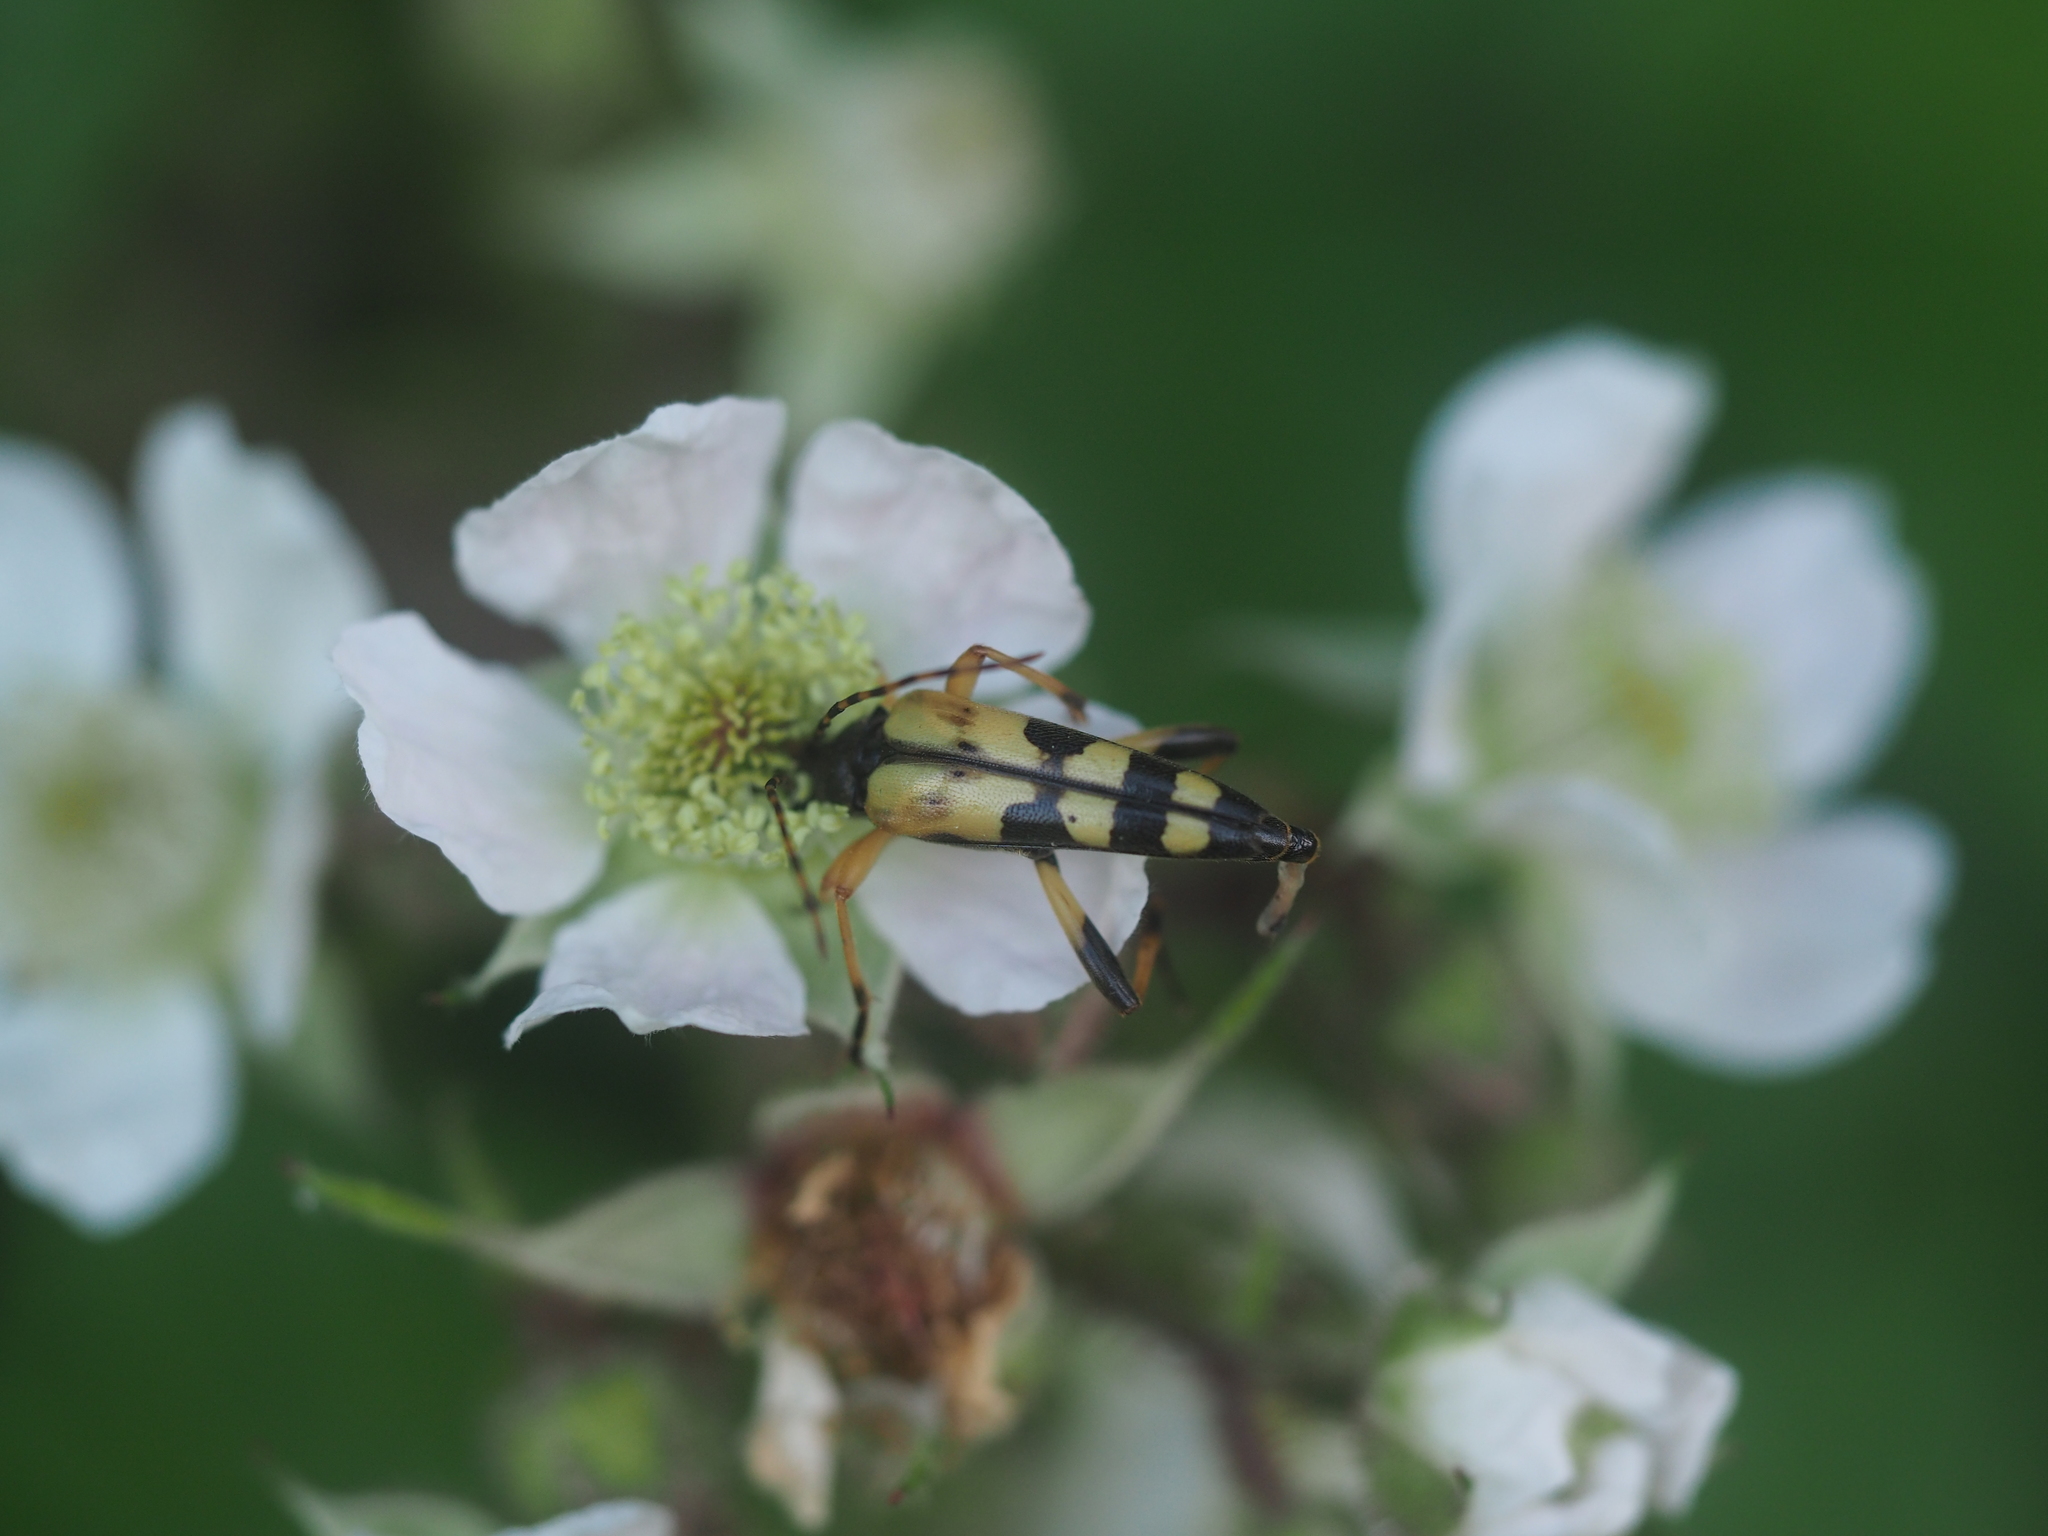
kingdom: Animalia
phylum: Arthropoda
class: Insecta
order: Coleoptera
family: Cerambycidae
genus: Rutpela
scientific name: Rutpela maculata
